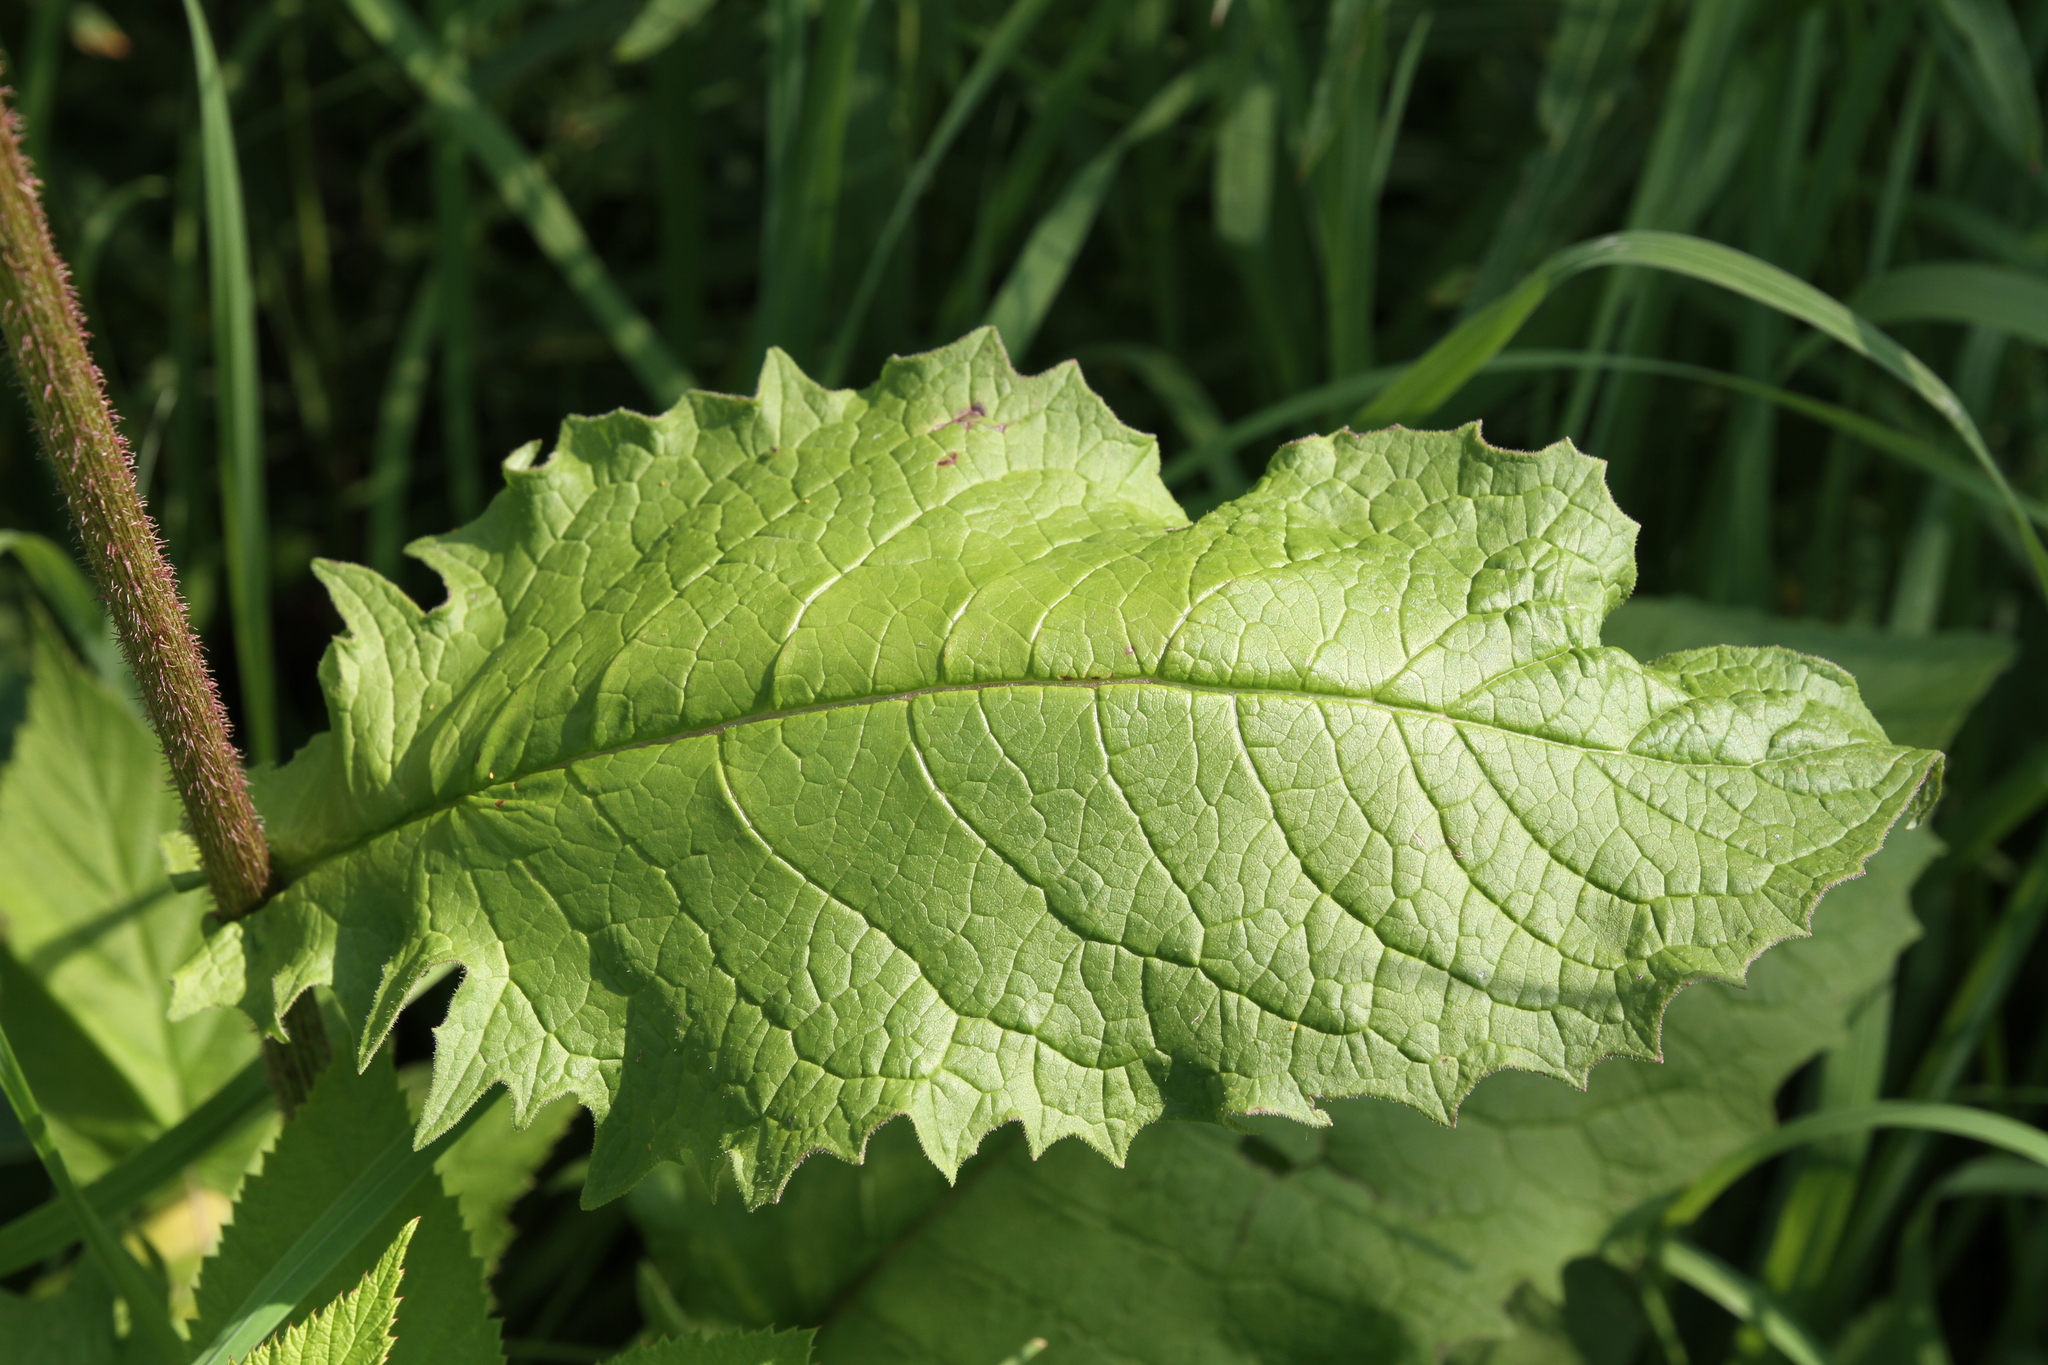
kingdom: Plantae
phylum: Tracheophyta
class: Magnoliopsida
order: Asterales
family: Asteraceae
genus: Crepis
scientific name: Crepis sibirica
